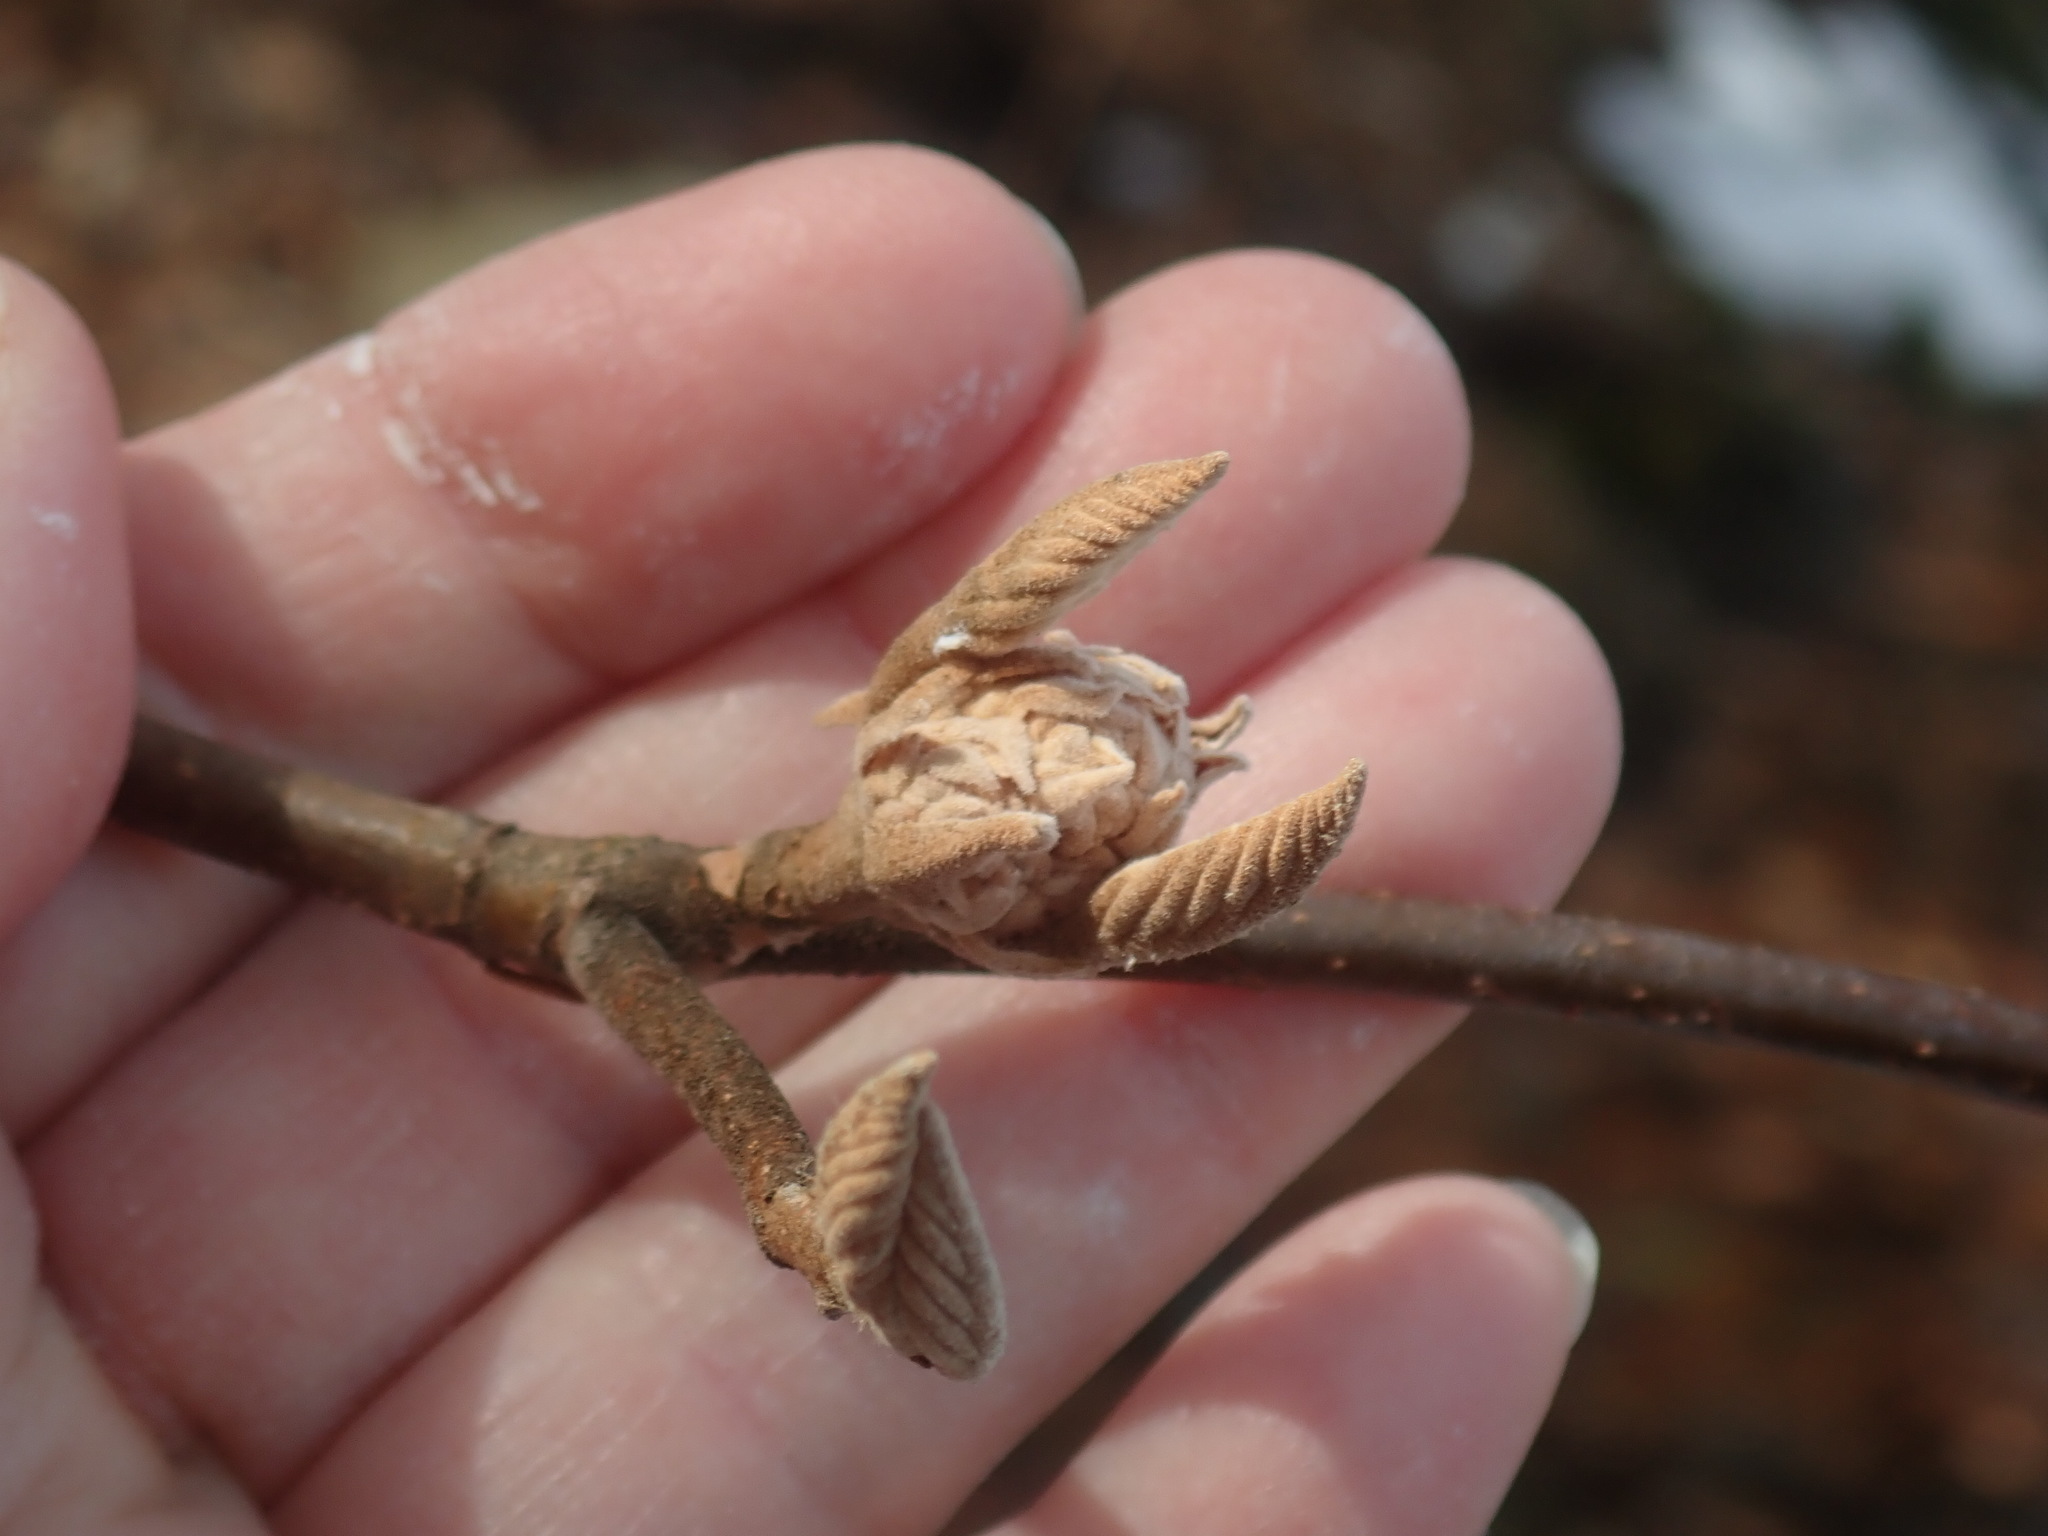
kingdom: Plantae
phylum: Tracheophyta
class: Magnoliopsida
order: Dipsacales
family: Viburnaceae
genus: Viburnum
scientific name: Viburnum lantanoides
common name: Hobblebush
